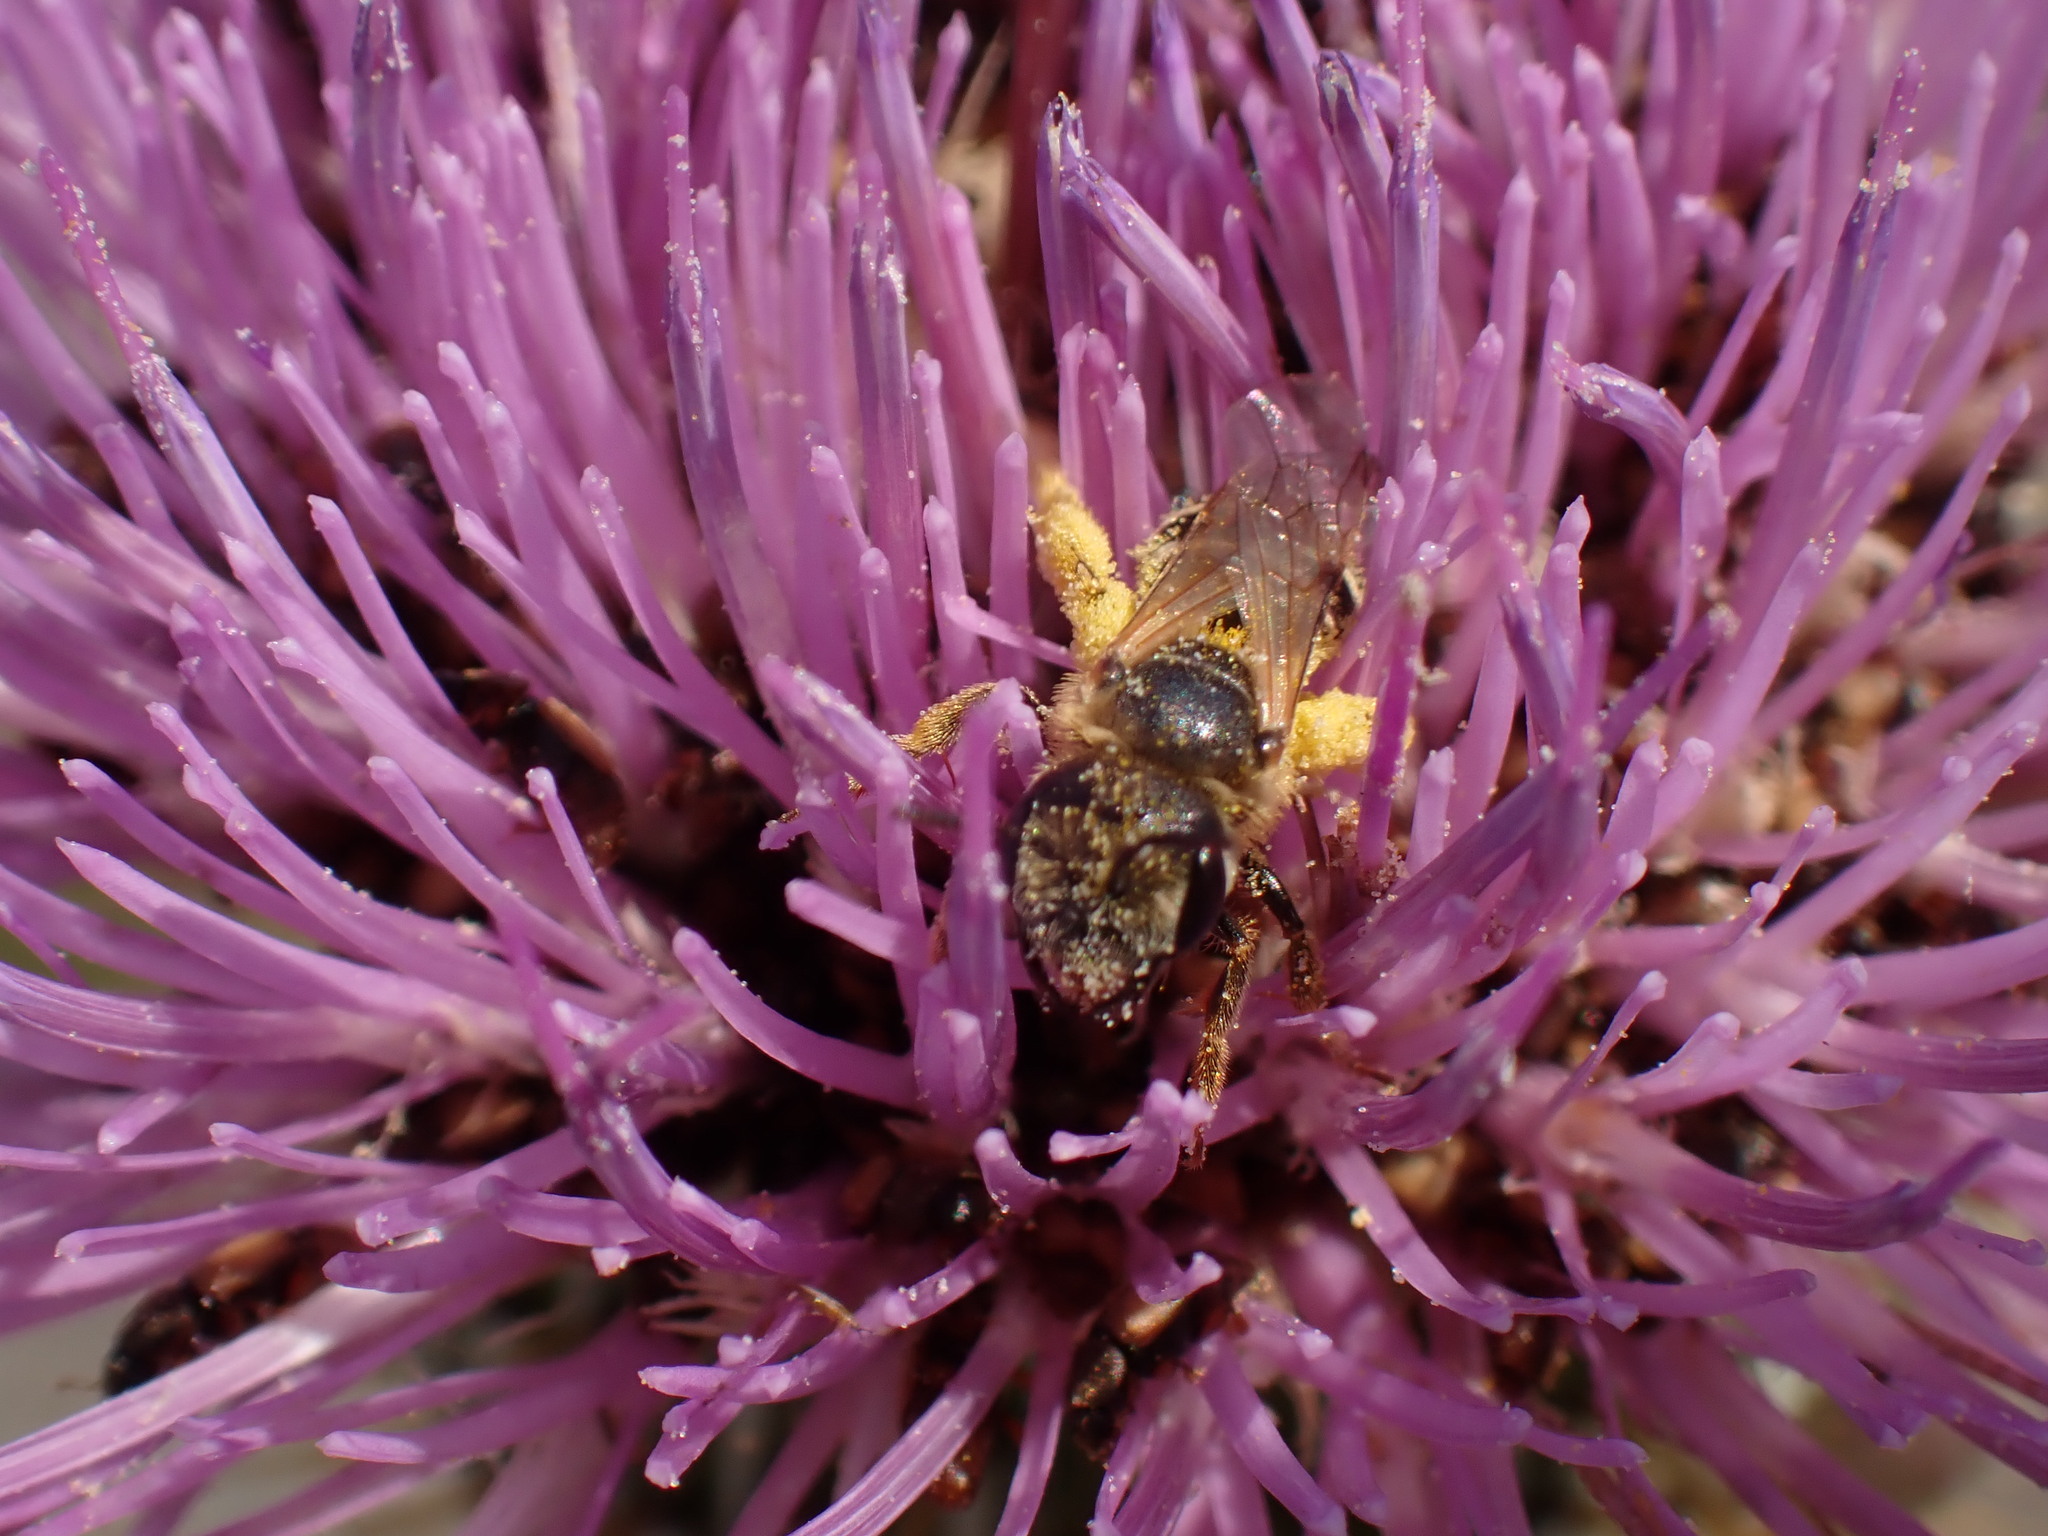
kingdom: Animalia
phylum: Arthropoda
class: Insecta
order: Hymenoptera
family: Halictidae
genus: Halictus
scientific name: Halictus ligatus
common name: Ligated furrow bee
